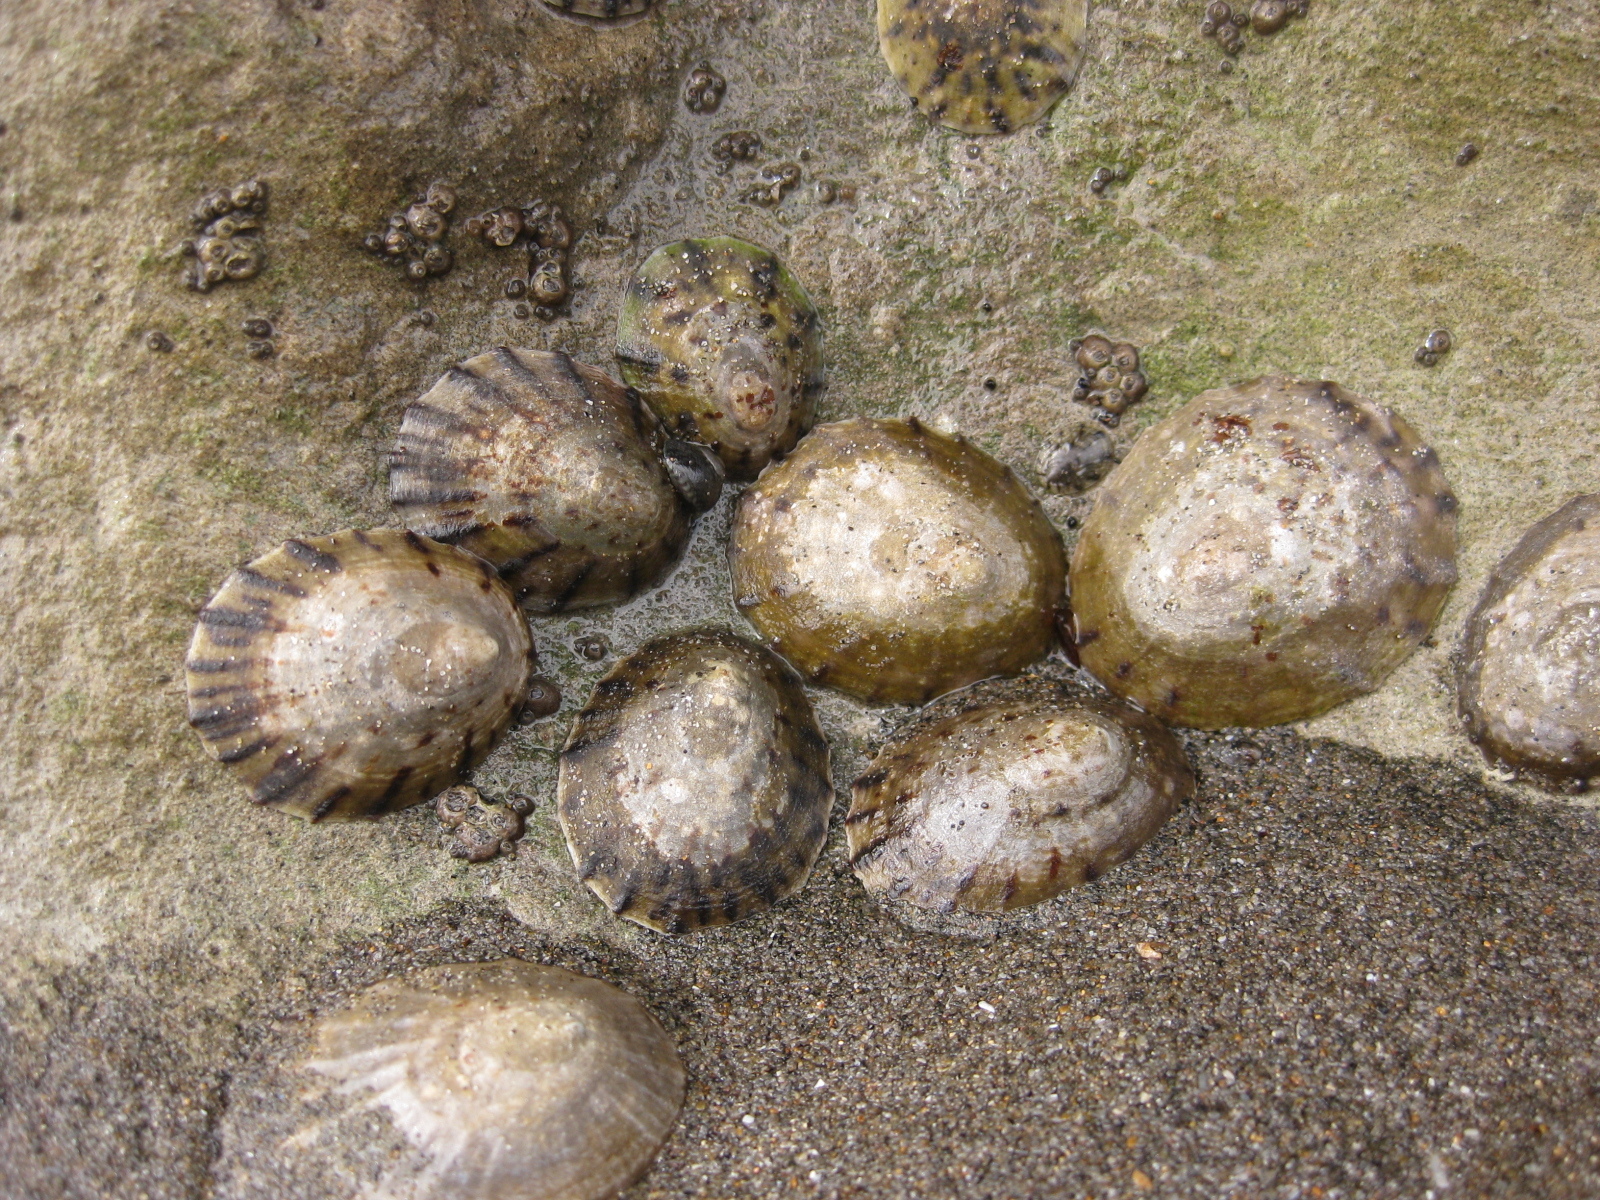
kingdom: Animalia
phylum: Mollusca
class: Gastropoda
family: Nacellidae
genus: Cellana
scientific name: Cellana radians
